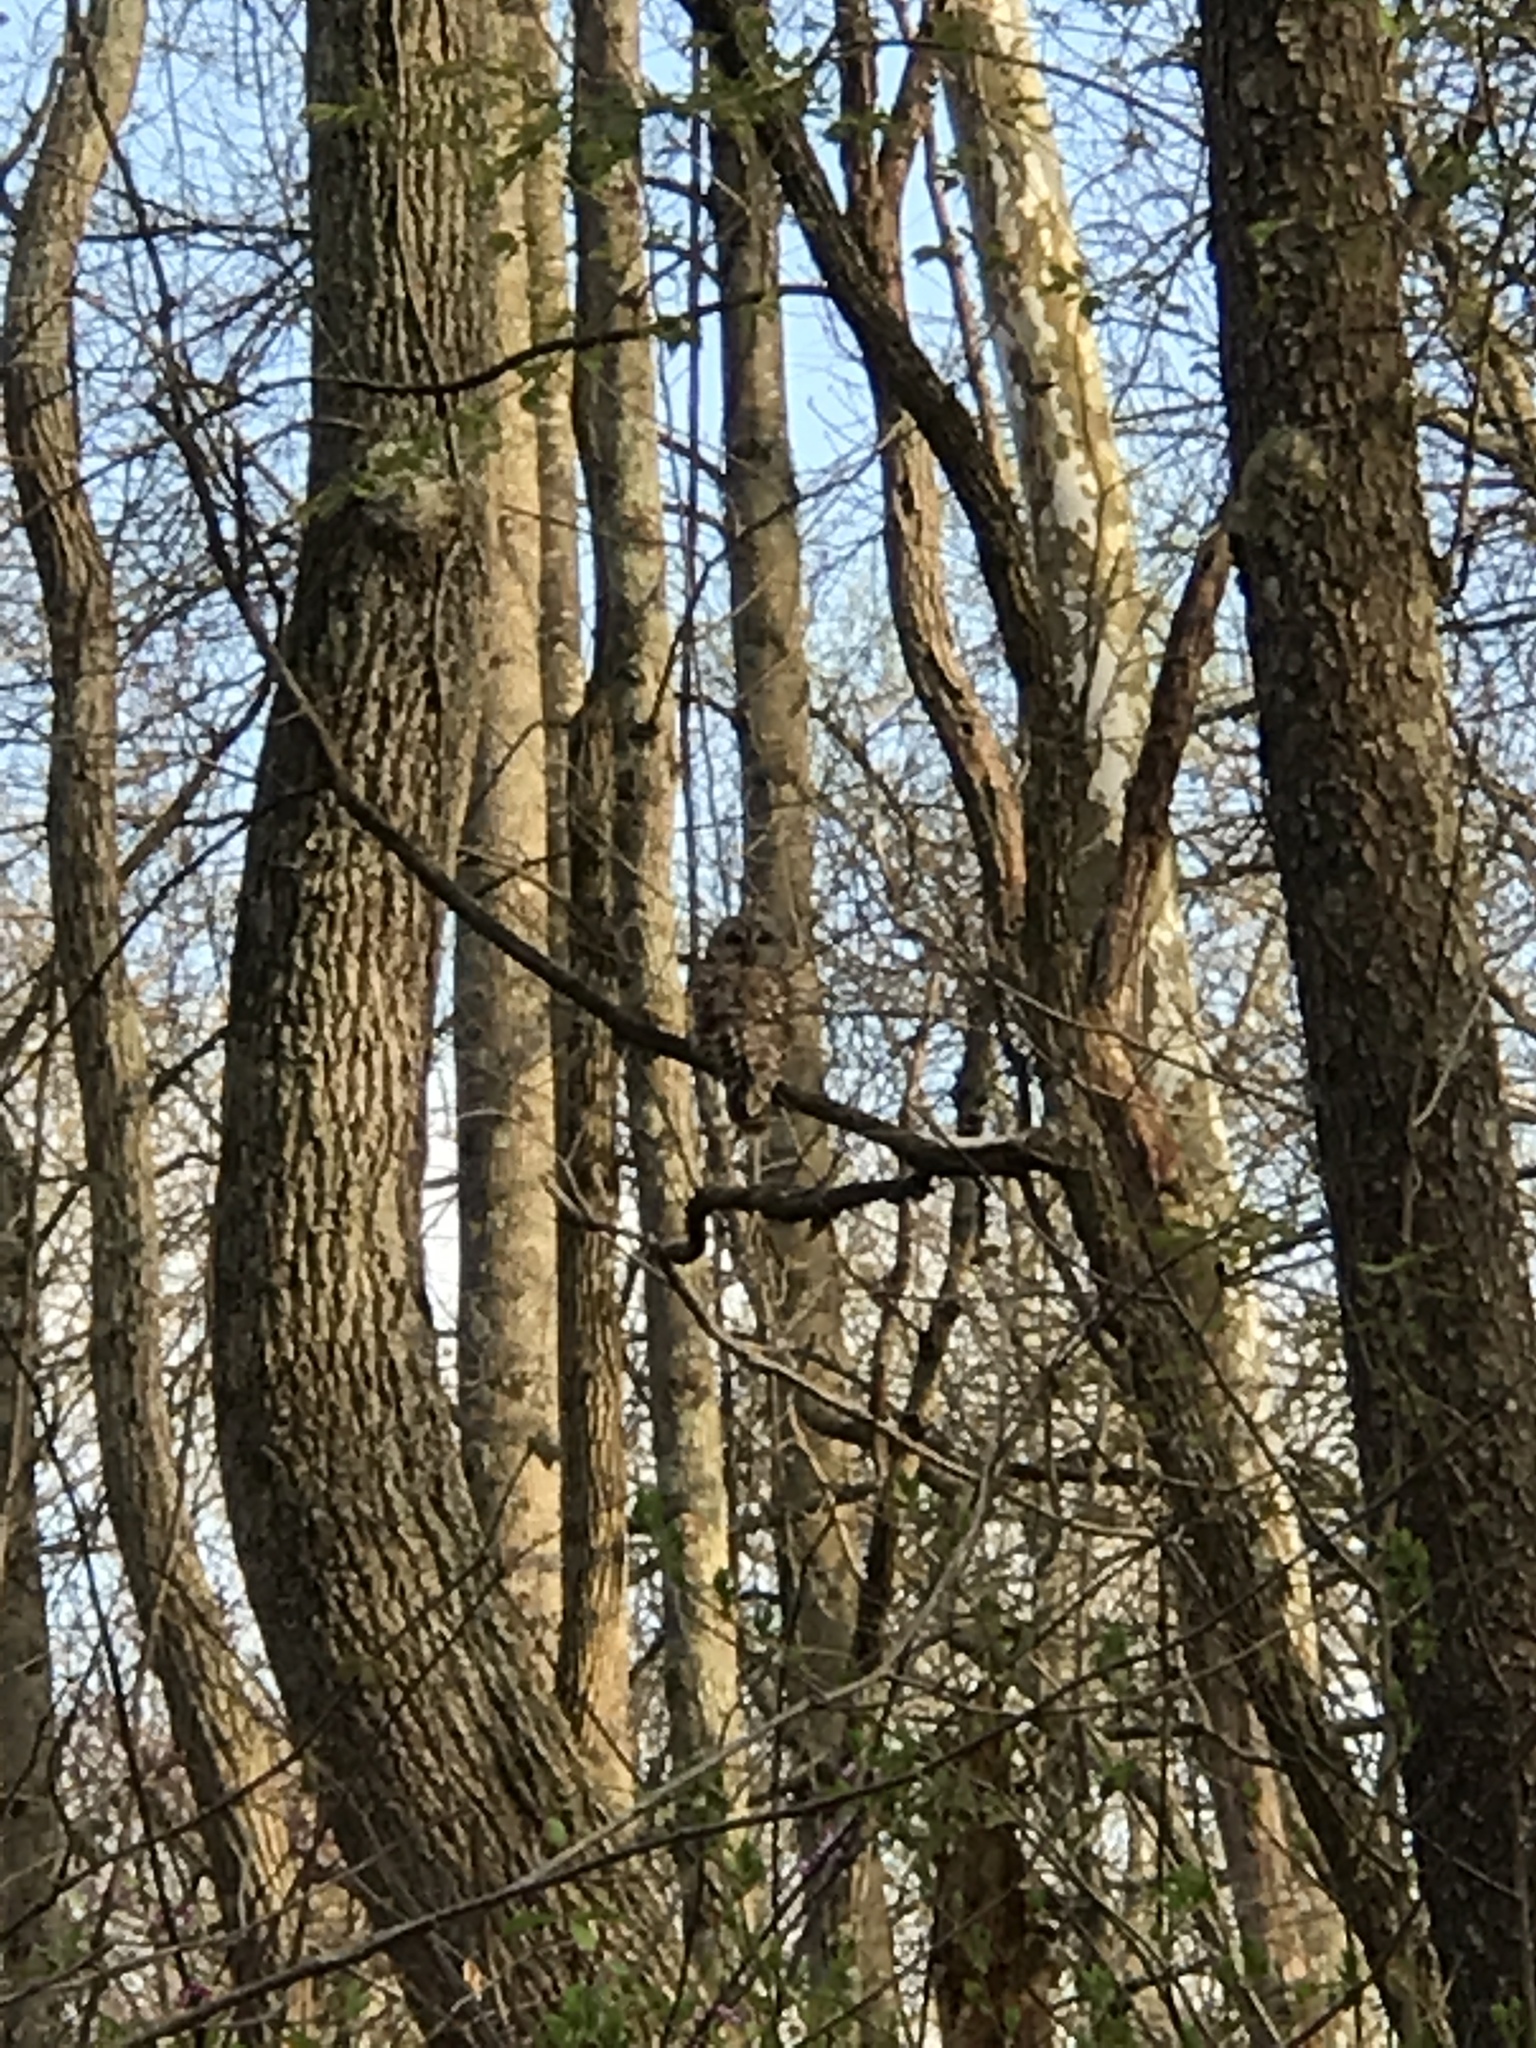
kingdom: Animalia
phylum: Chordata
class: Aves
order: Strigiformes
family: Strigidae
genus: Strix
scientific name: Strix varia
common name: Barred owl
